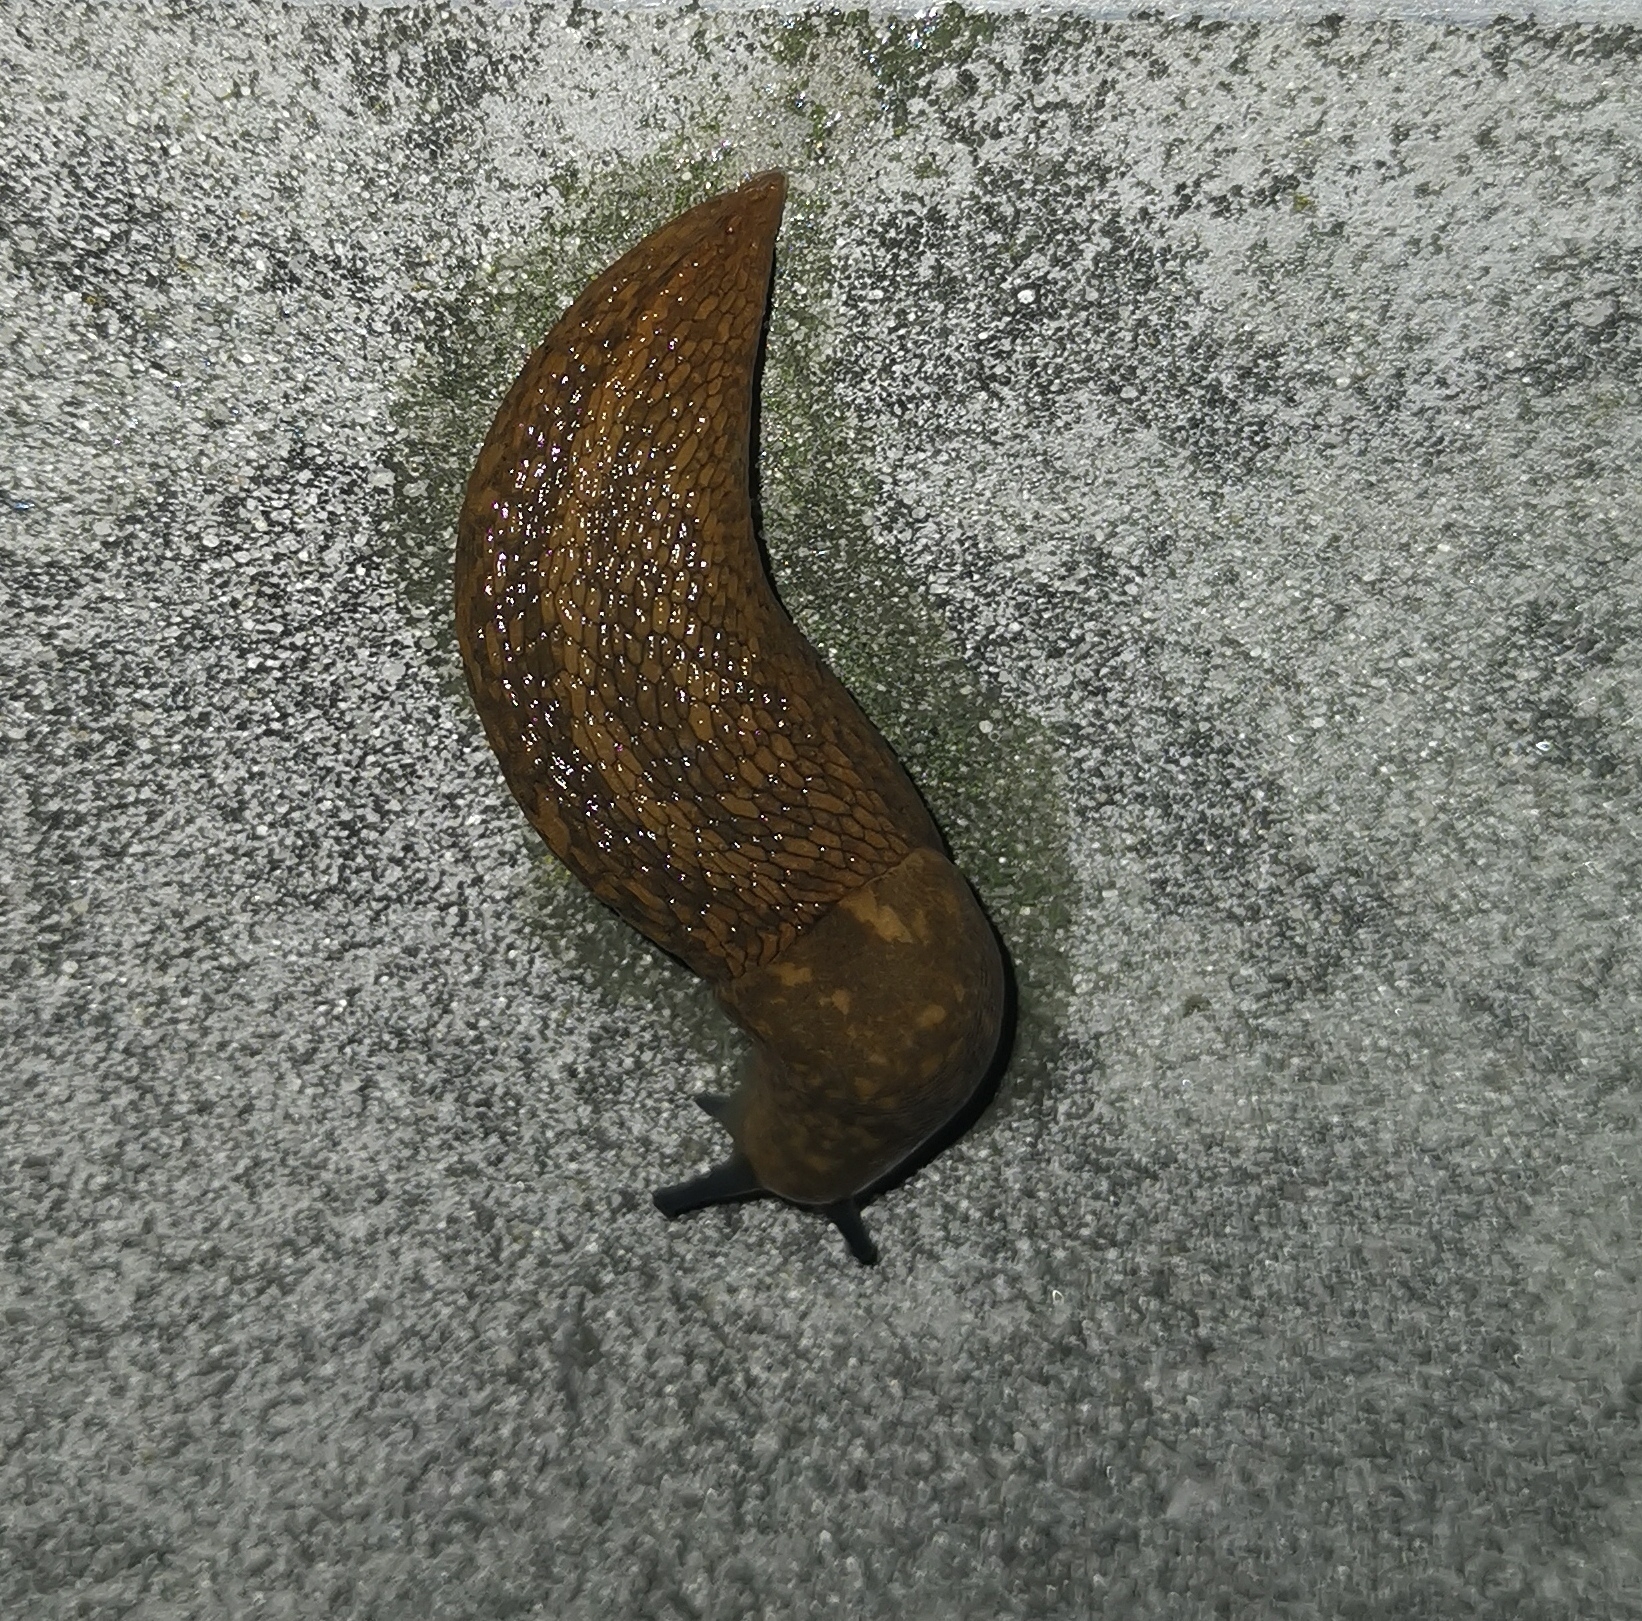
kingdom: Animalia
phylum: Mollusca
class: Gastropoda
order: Stylommatophora
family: Limacidae
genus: Limacus
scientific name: Limacus
